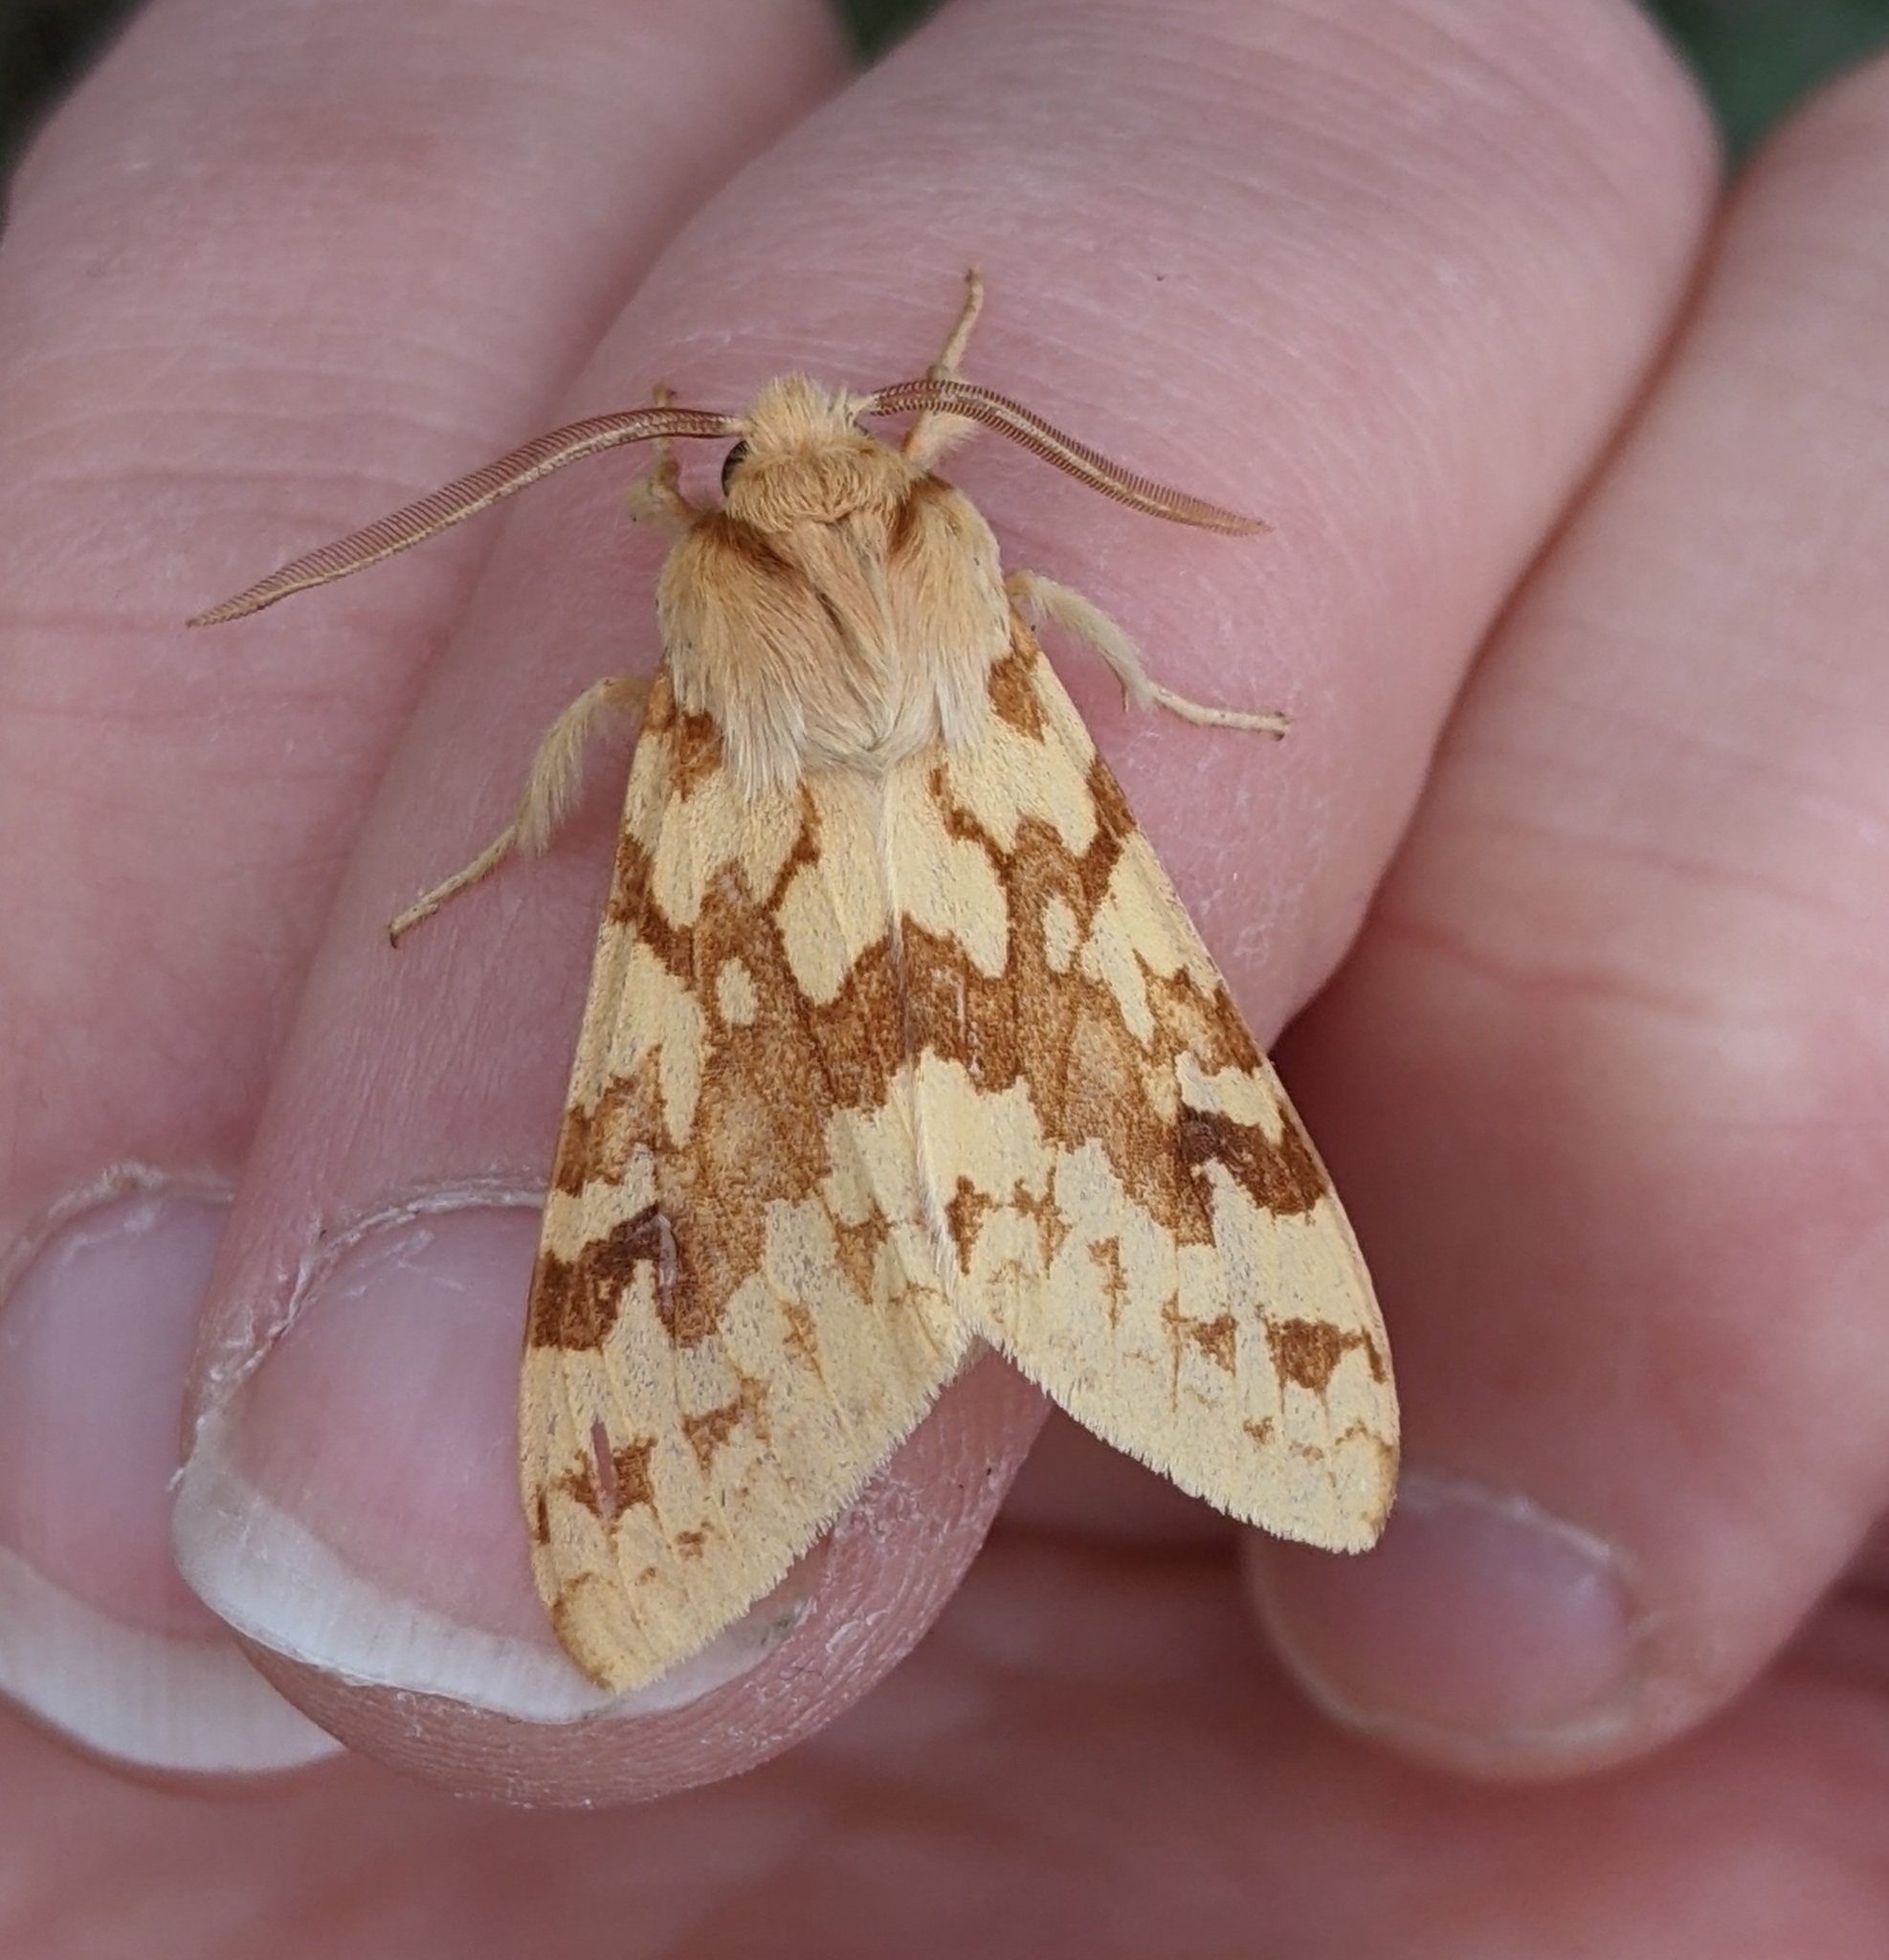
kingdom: Animalia
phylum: Arthropoda
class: Insecta
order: Lepidoptera
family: Erebidae
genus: Lophocampa
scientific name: Lophocampa maculata
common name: Spotted tussock moth
